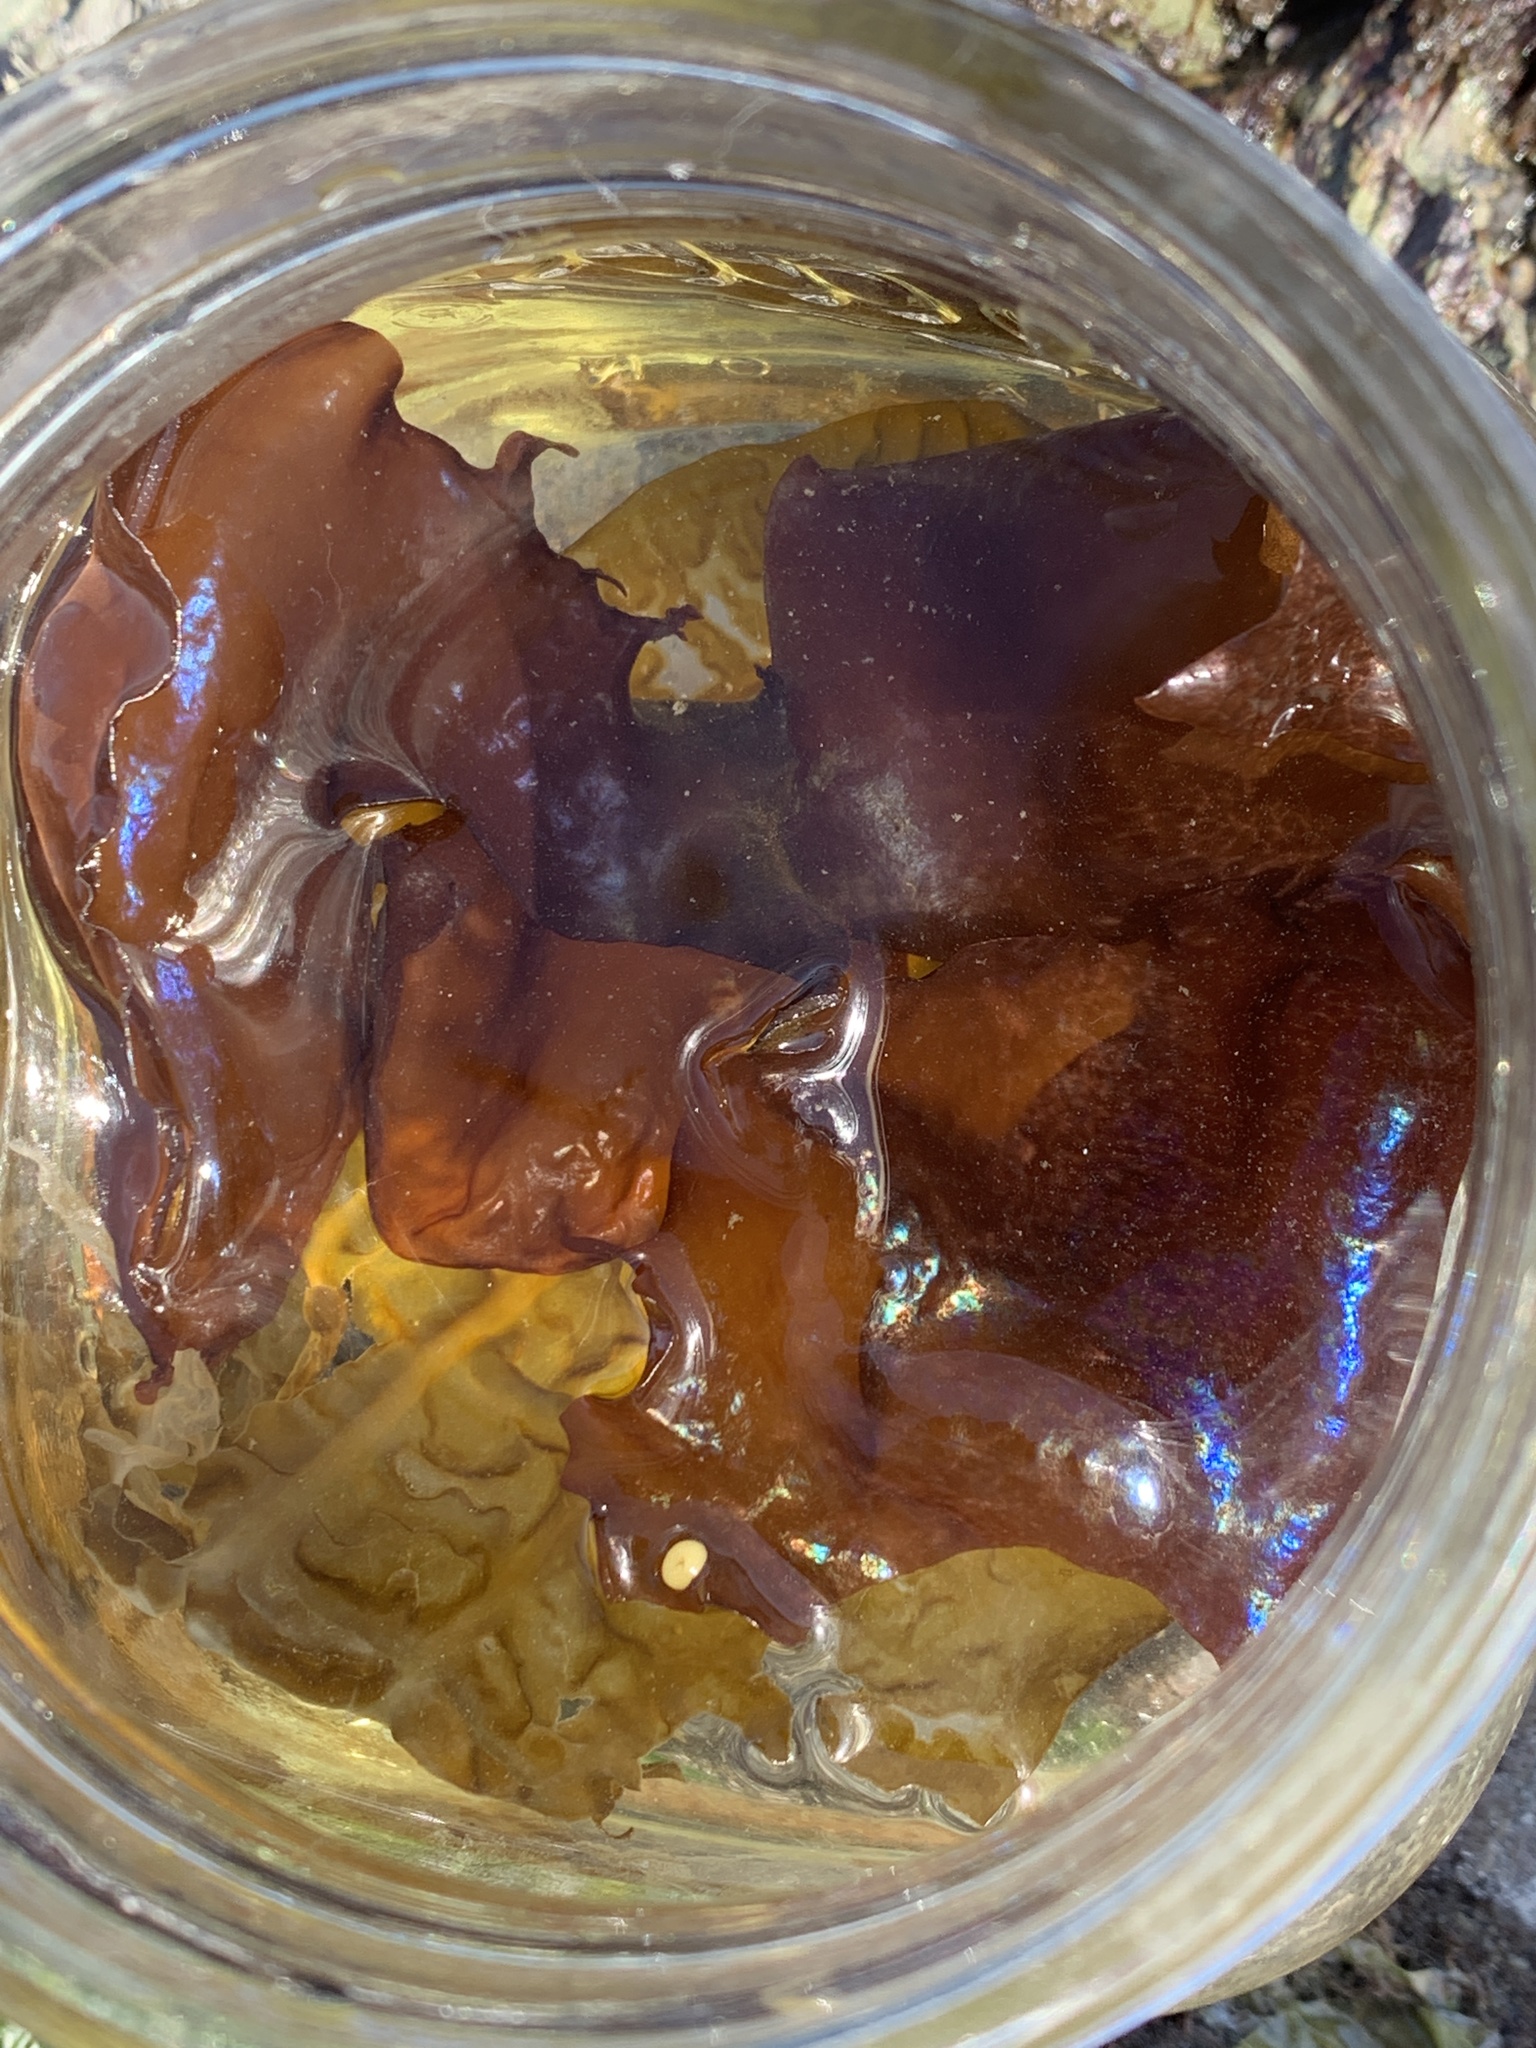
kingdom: Plantae
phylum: Rhodophyta
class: Florideophyceae
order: Gigartinales
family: Gigartinaceae
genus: Mazzaella
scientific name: Mazzaella splendens
